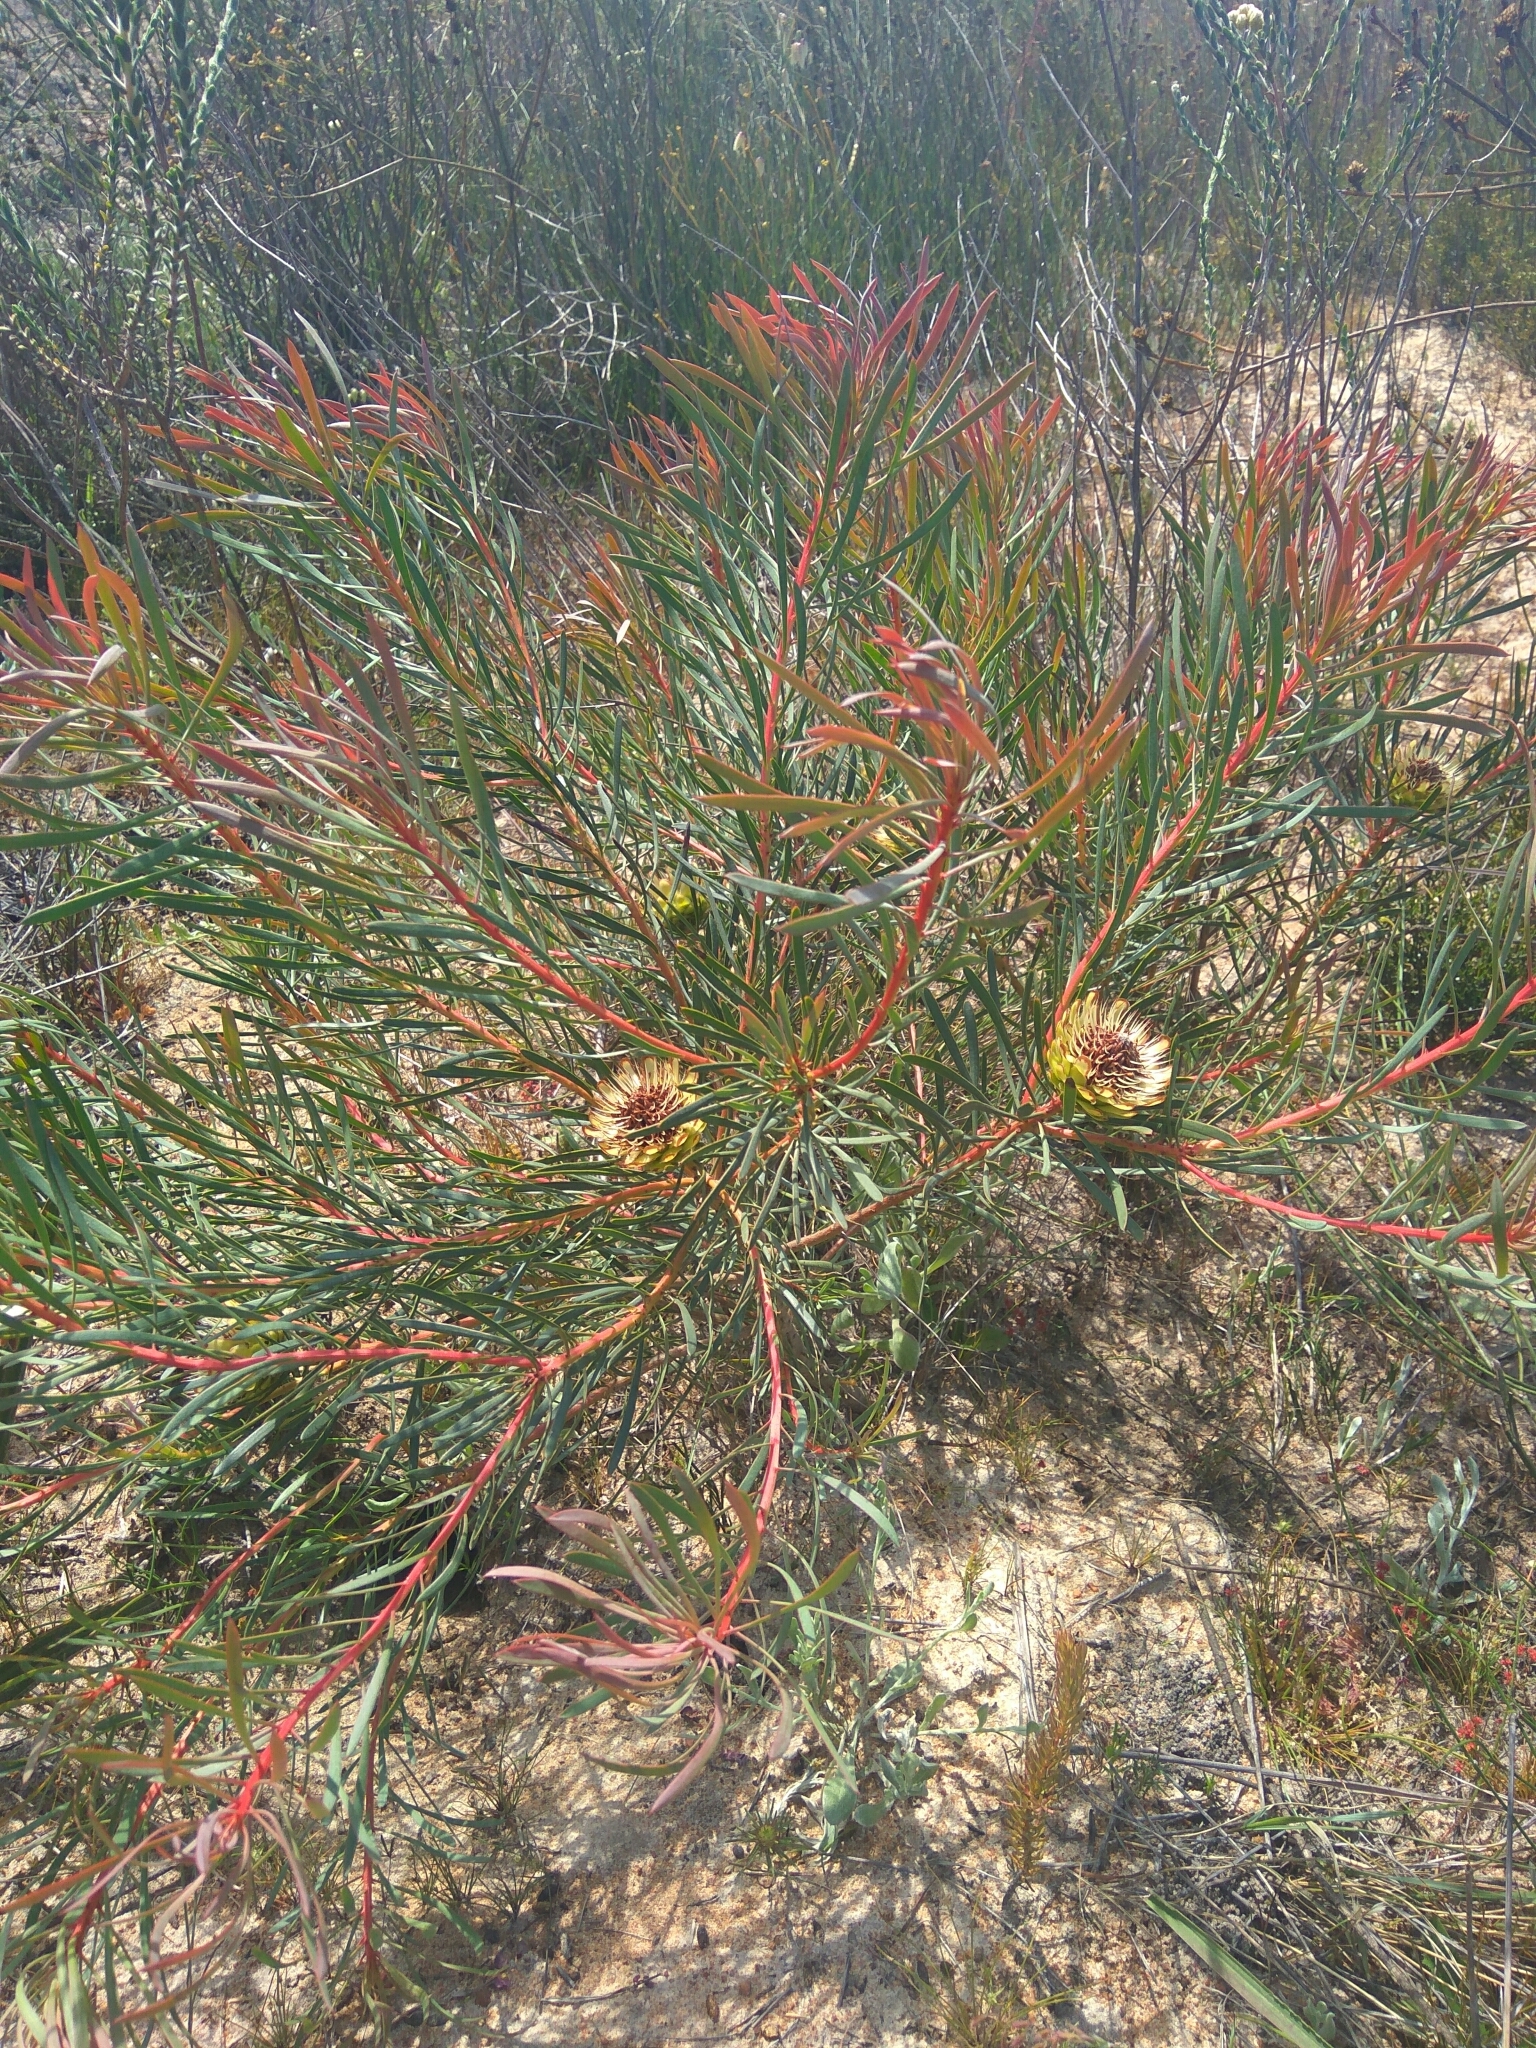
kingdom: Plantae
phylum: Tracheophyta
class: Magnoliopsida
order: Proteales
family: Proteaceae
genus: Protea
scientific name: Protea scolymocephala
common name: Thistle sugarbush
